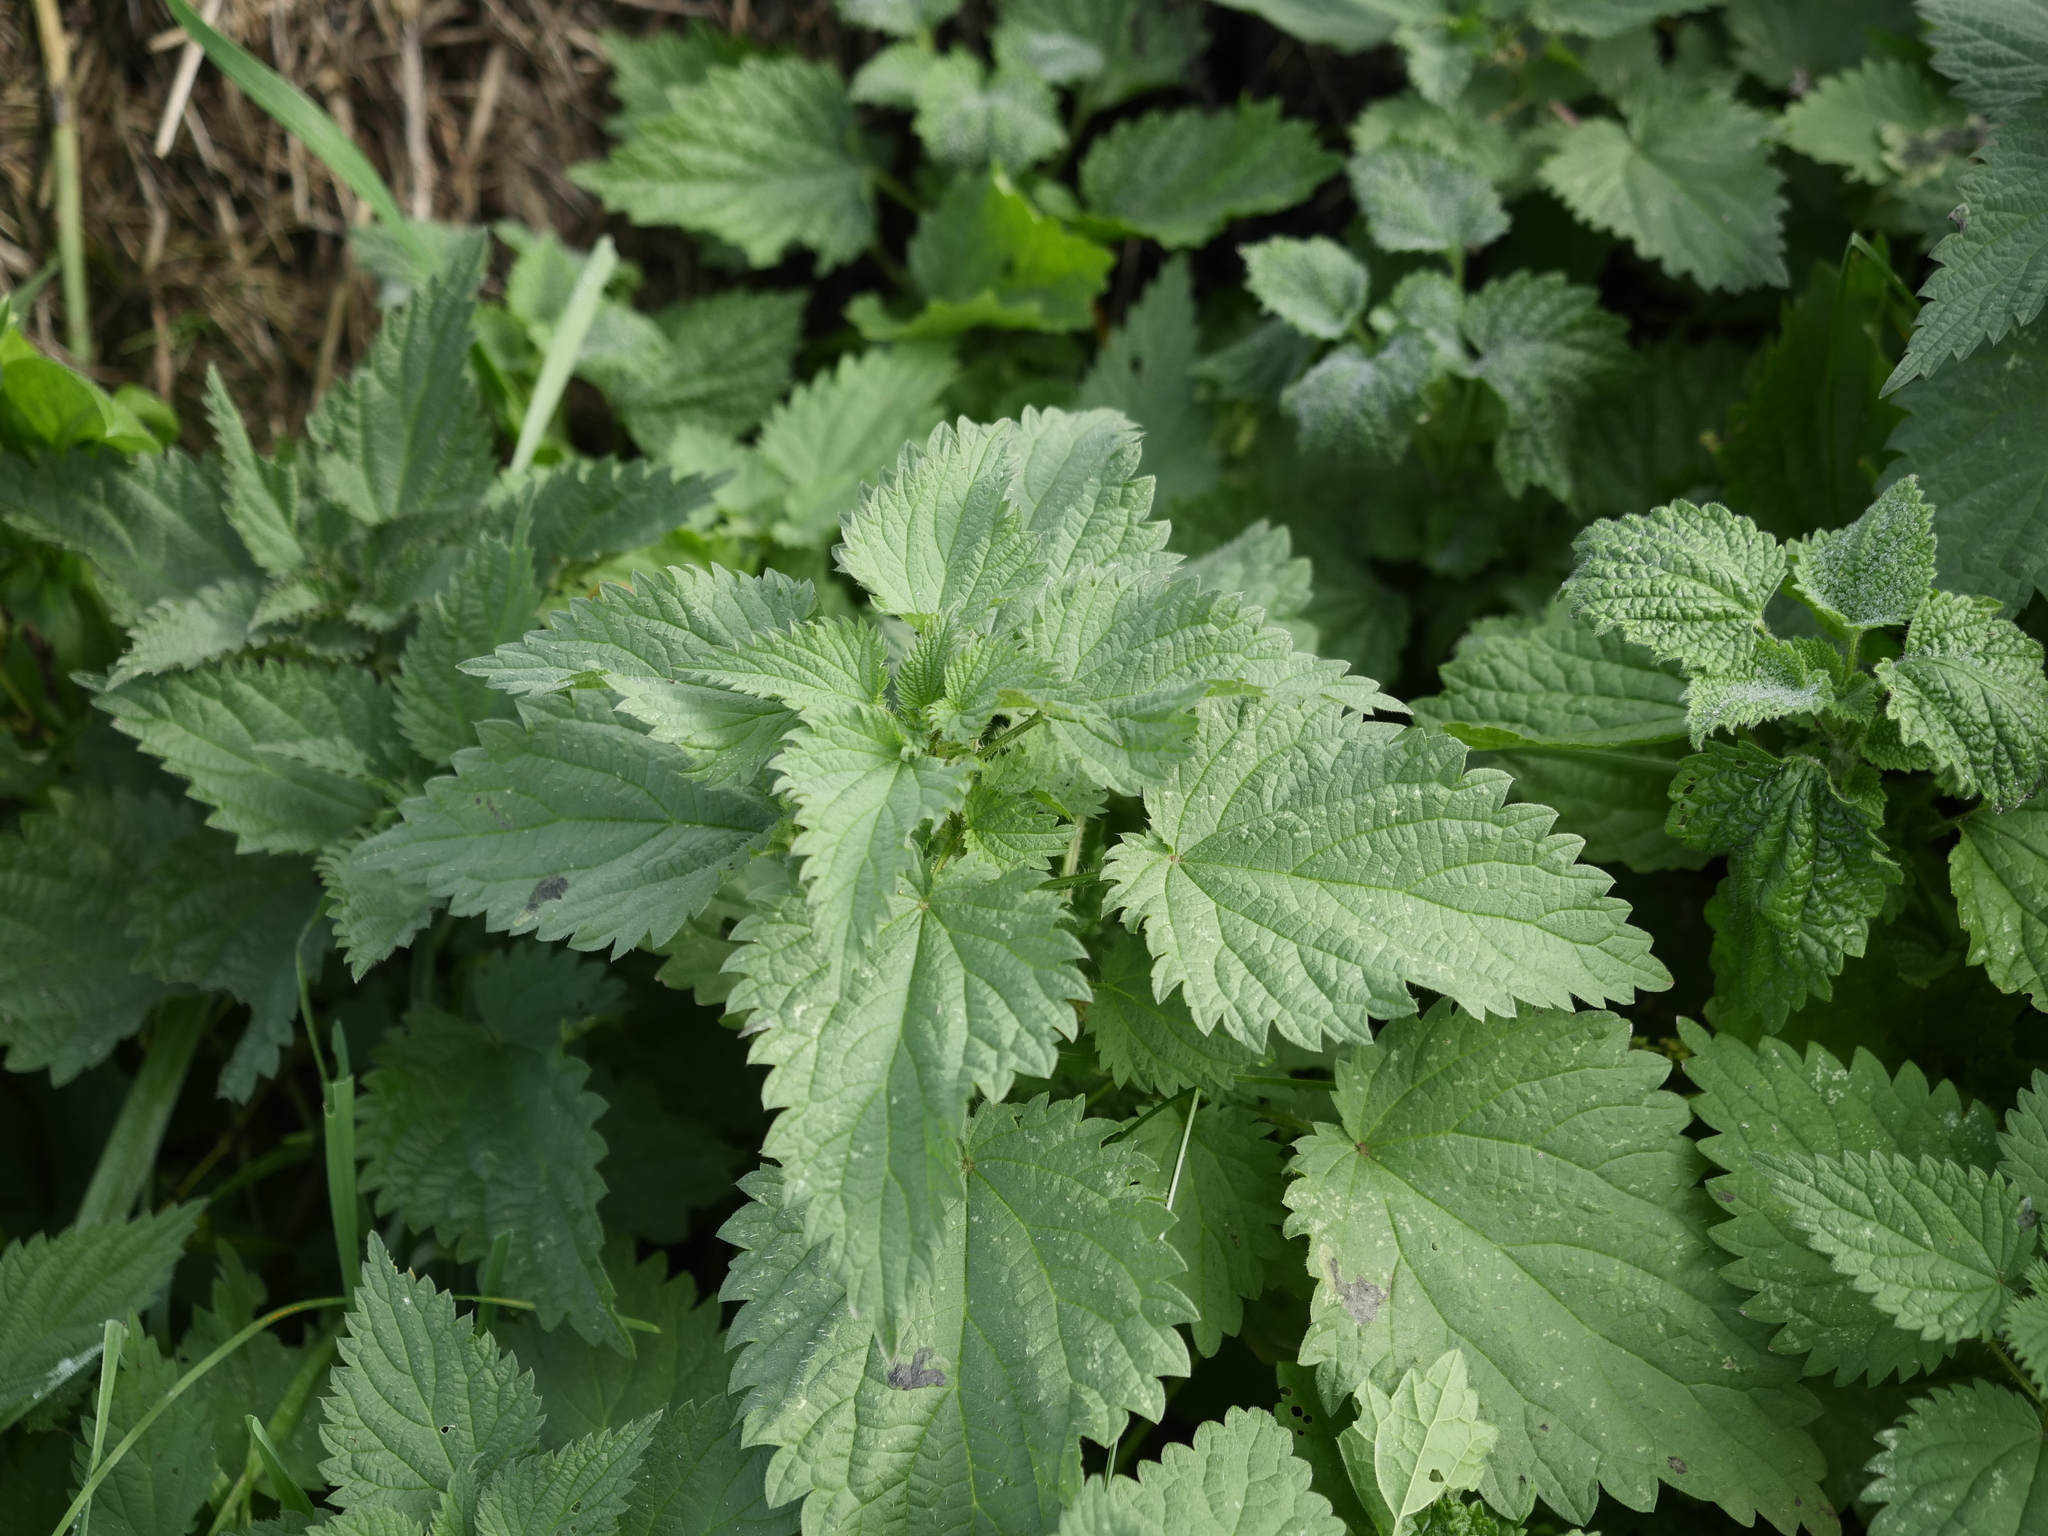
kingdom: Plantae
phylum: Tracheophyta
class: Magnoliopsida
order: Rosales
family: Urticaceae
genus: Urtica
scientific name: Urtica dioica
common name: Common nettle
